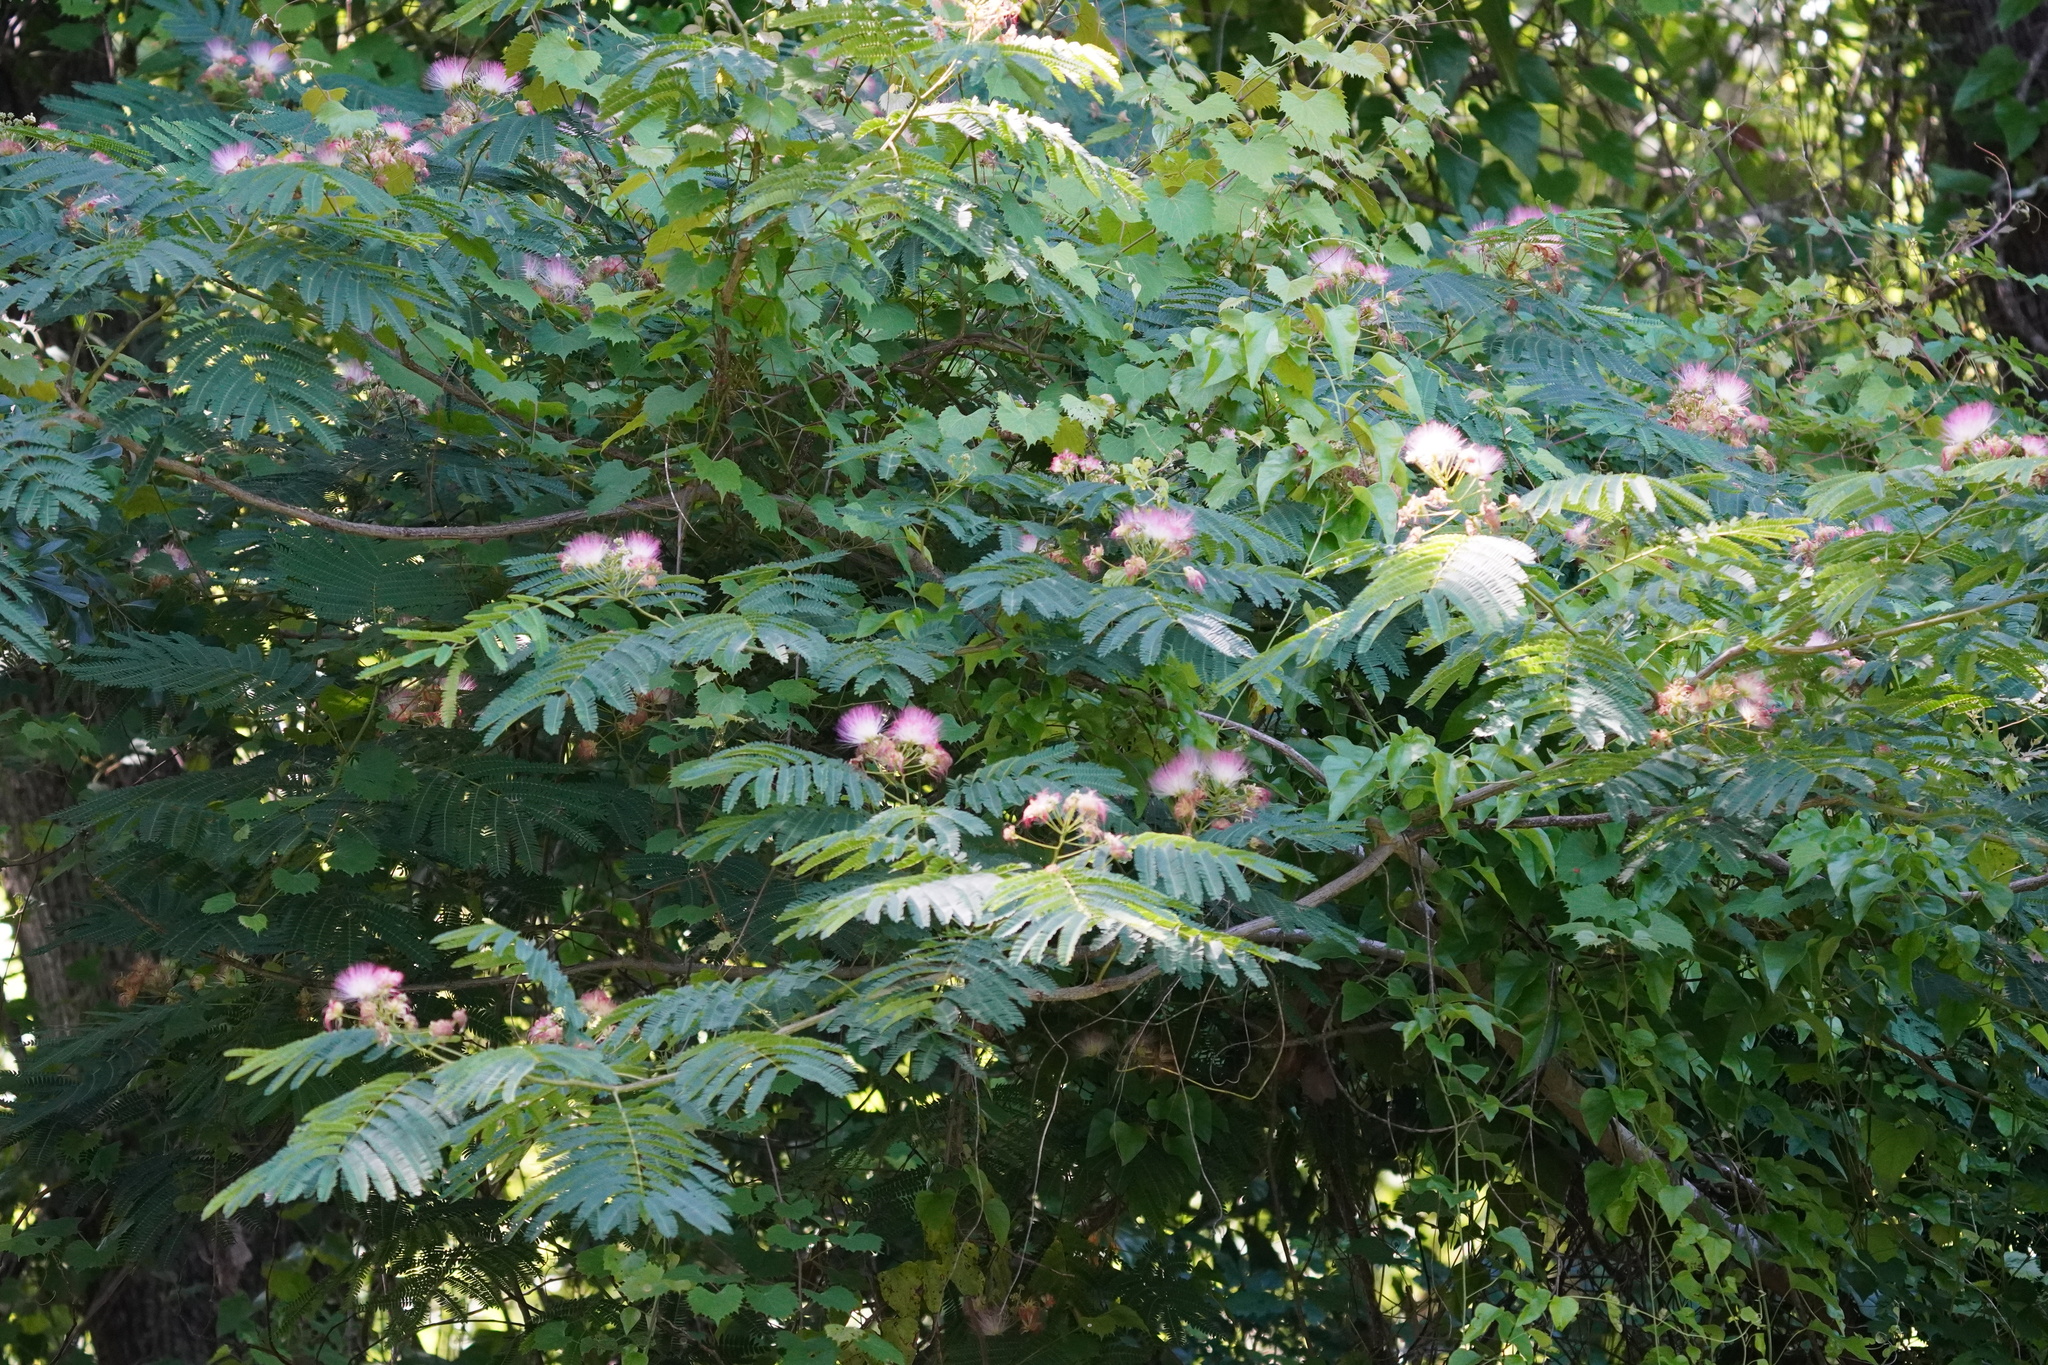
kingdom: Plantae
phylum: Tracheophyta
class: Magnoliopsida
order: Fabales
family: Fabaceae
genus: Albizia
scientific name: Albizia julibrissin
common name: Silktree
